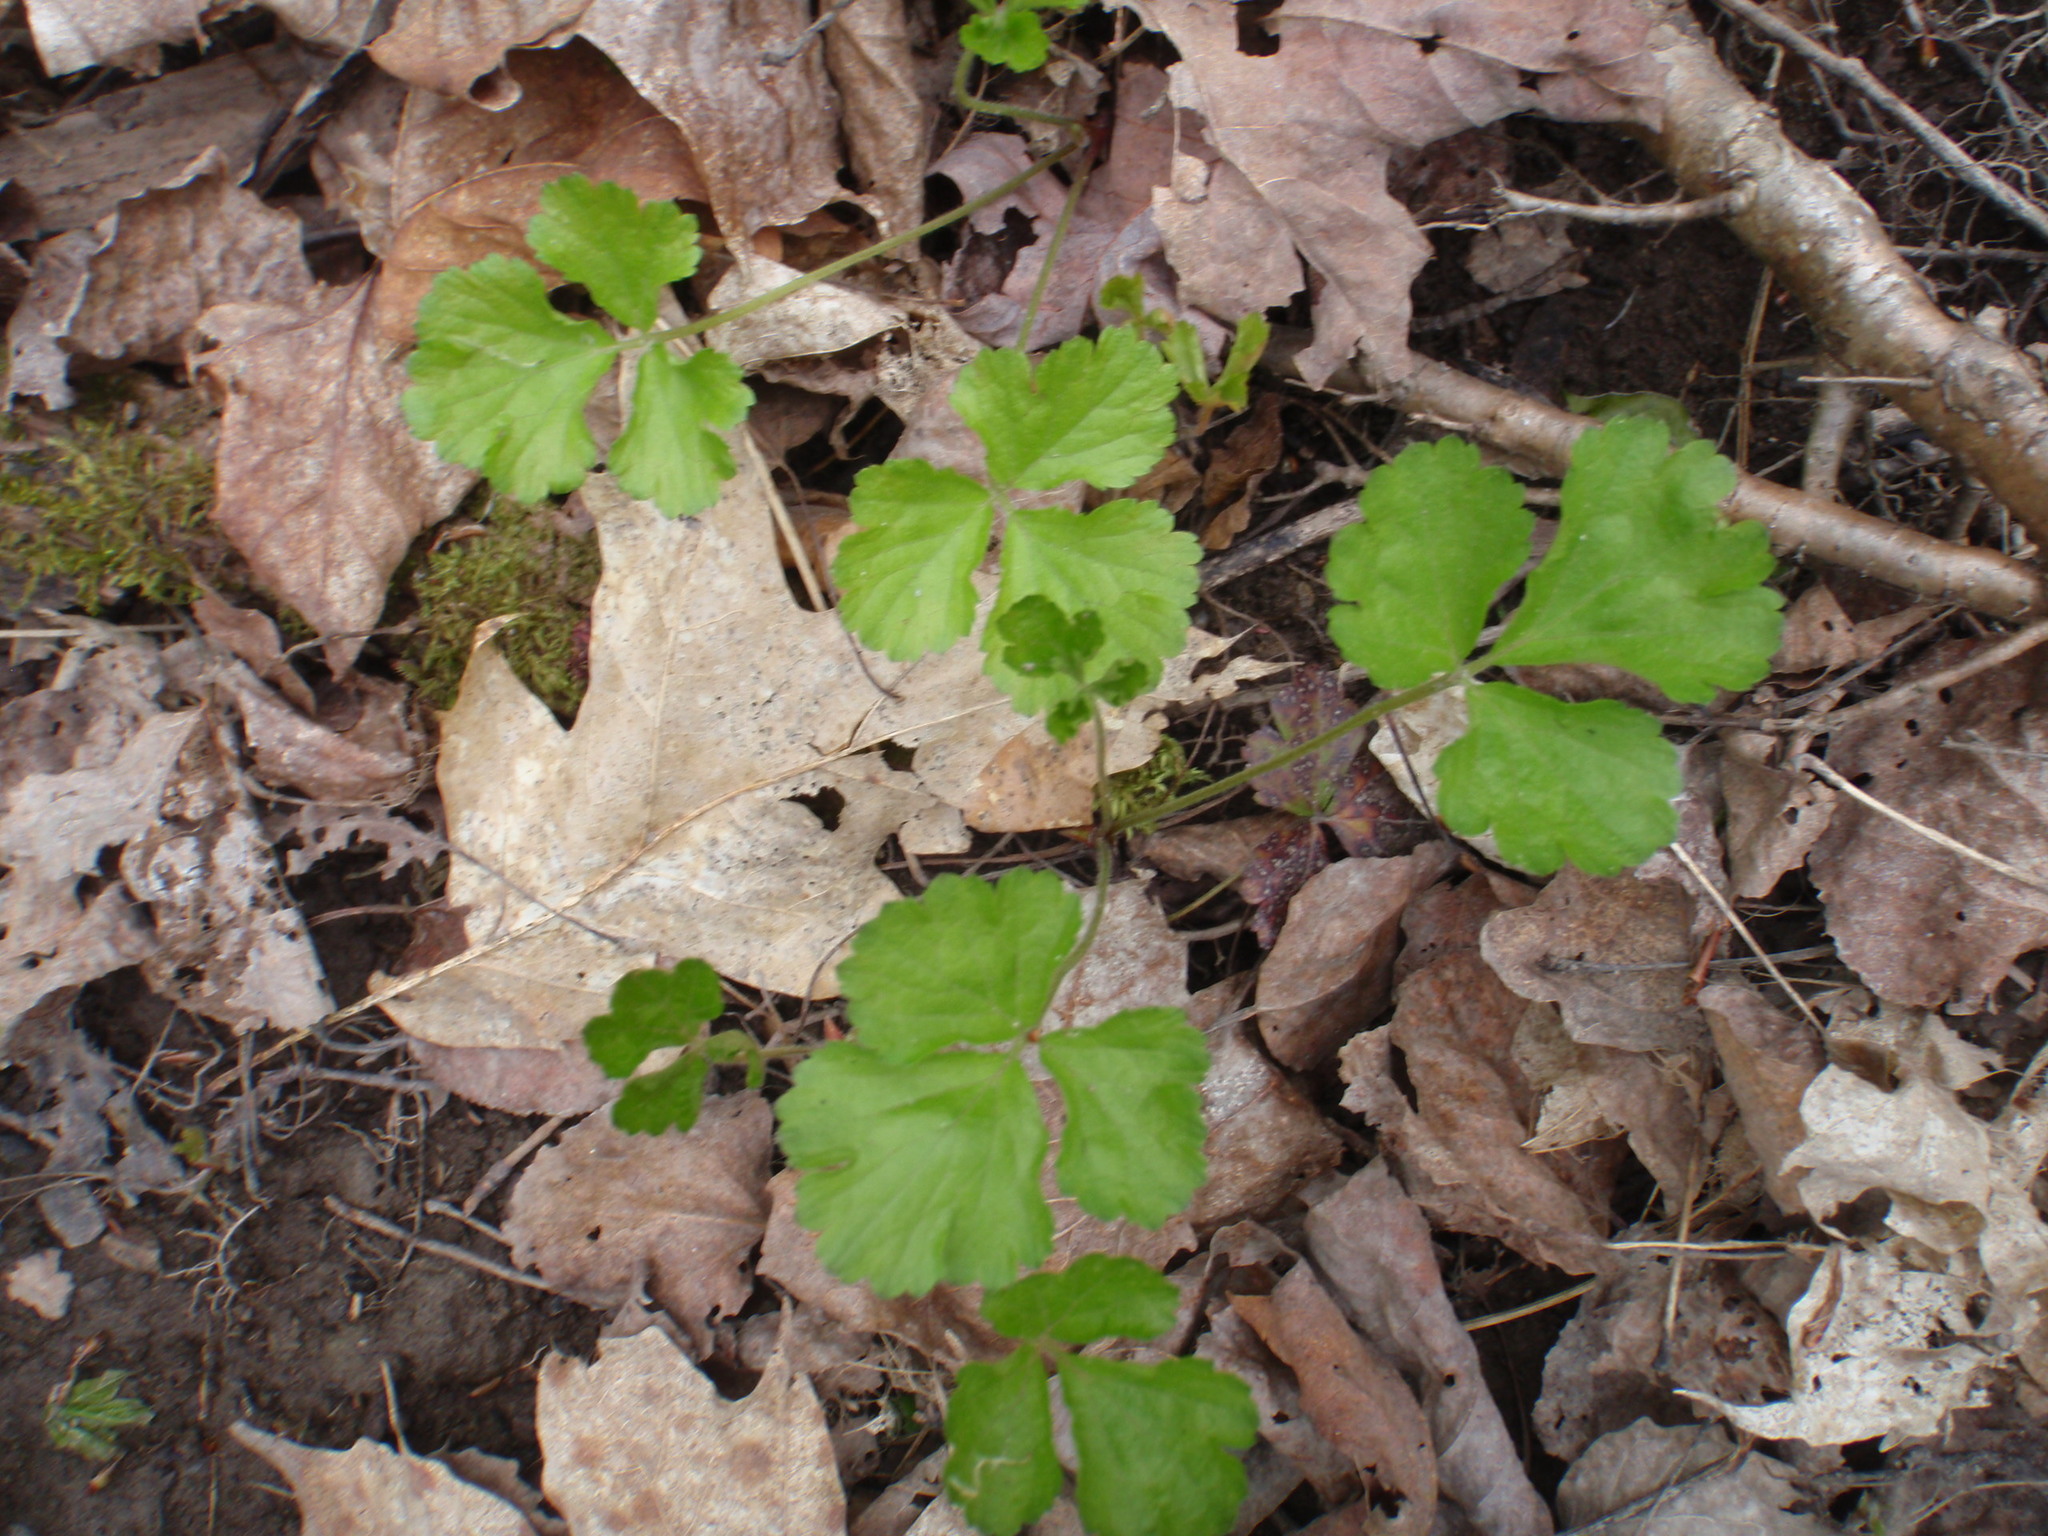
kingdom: Plantae
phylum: Tracheophyta
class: Magnoliopsida
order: Rosales
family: Rosaceae
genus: Geum
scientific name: Geum fragarioides
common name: Appalachian barren strawberry
